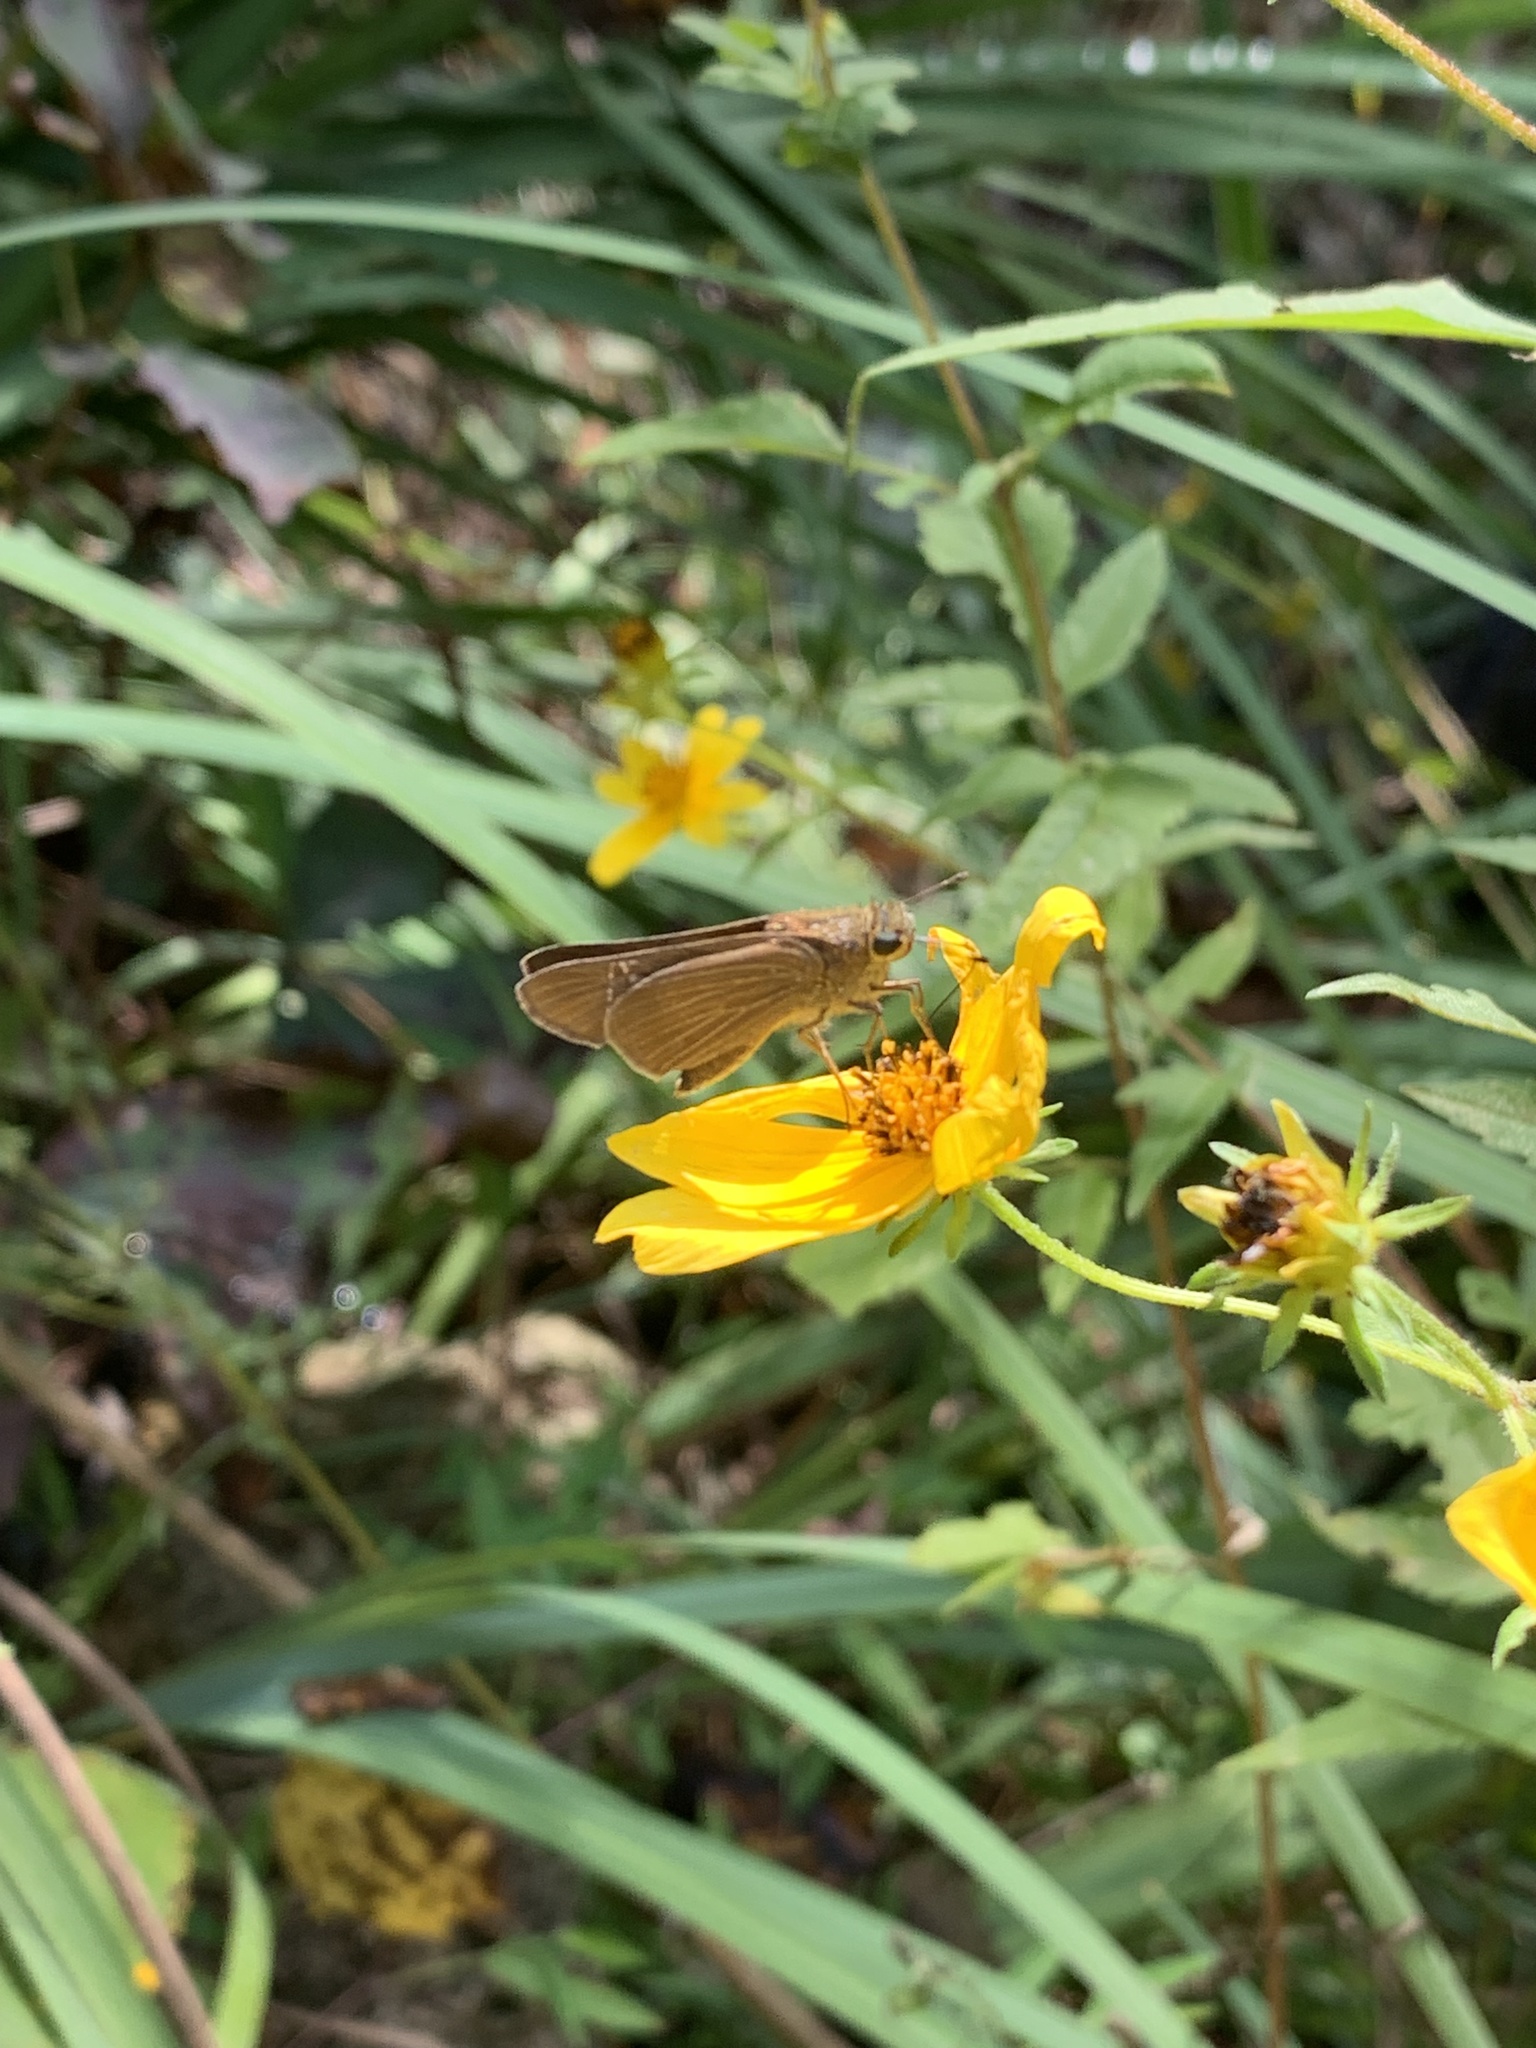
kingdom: Animalia
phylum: Arthropoda
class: Insecta
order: Lepidoptera
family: Hesperiidae
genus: Panoquina
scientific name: Panoquina ocola
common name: Ocola skipper
